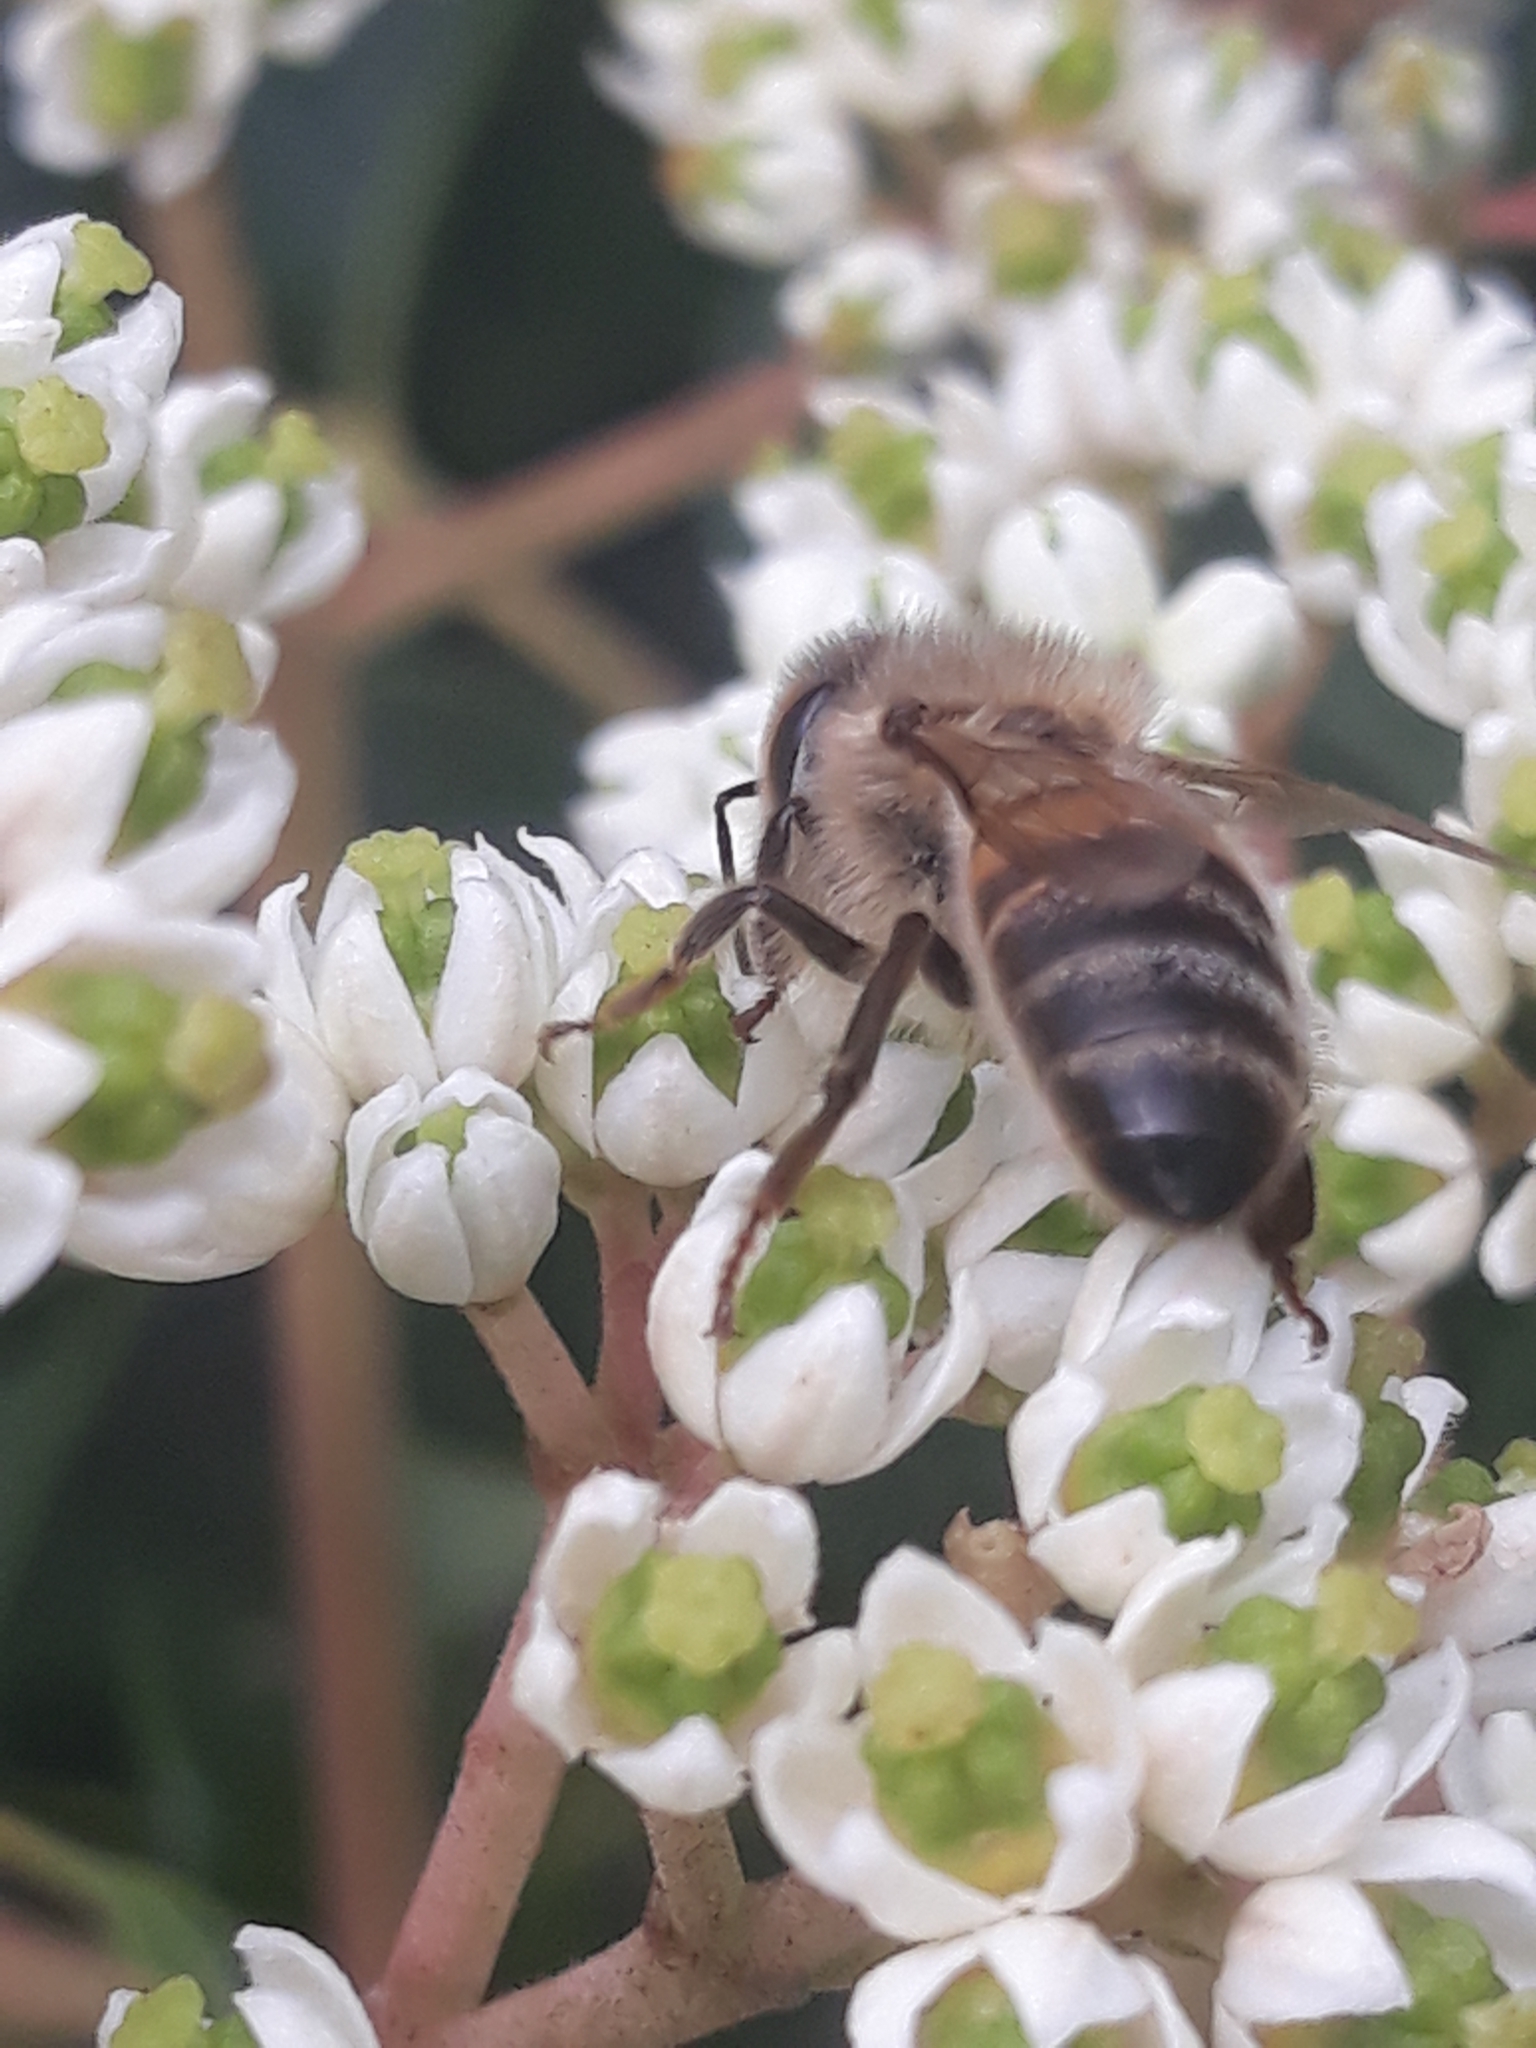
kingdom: Animalia
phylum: Arthropoda
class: Insecta
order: Hymenoptera
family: Apidae
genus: Apis
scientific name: Apis mellifera
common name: Honey bee
